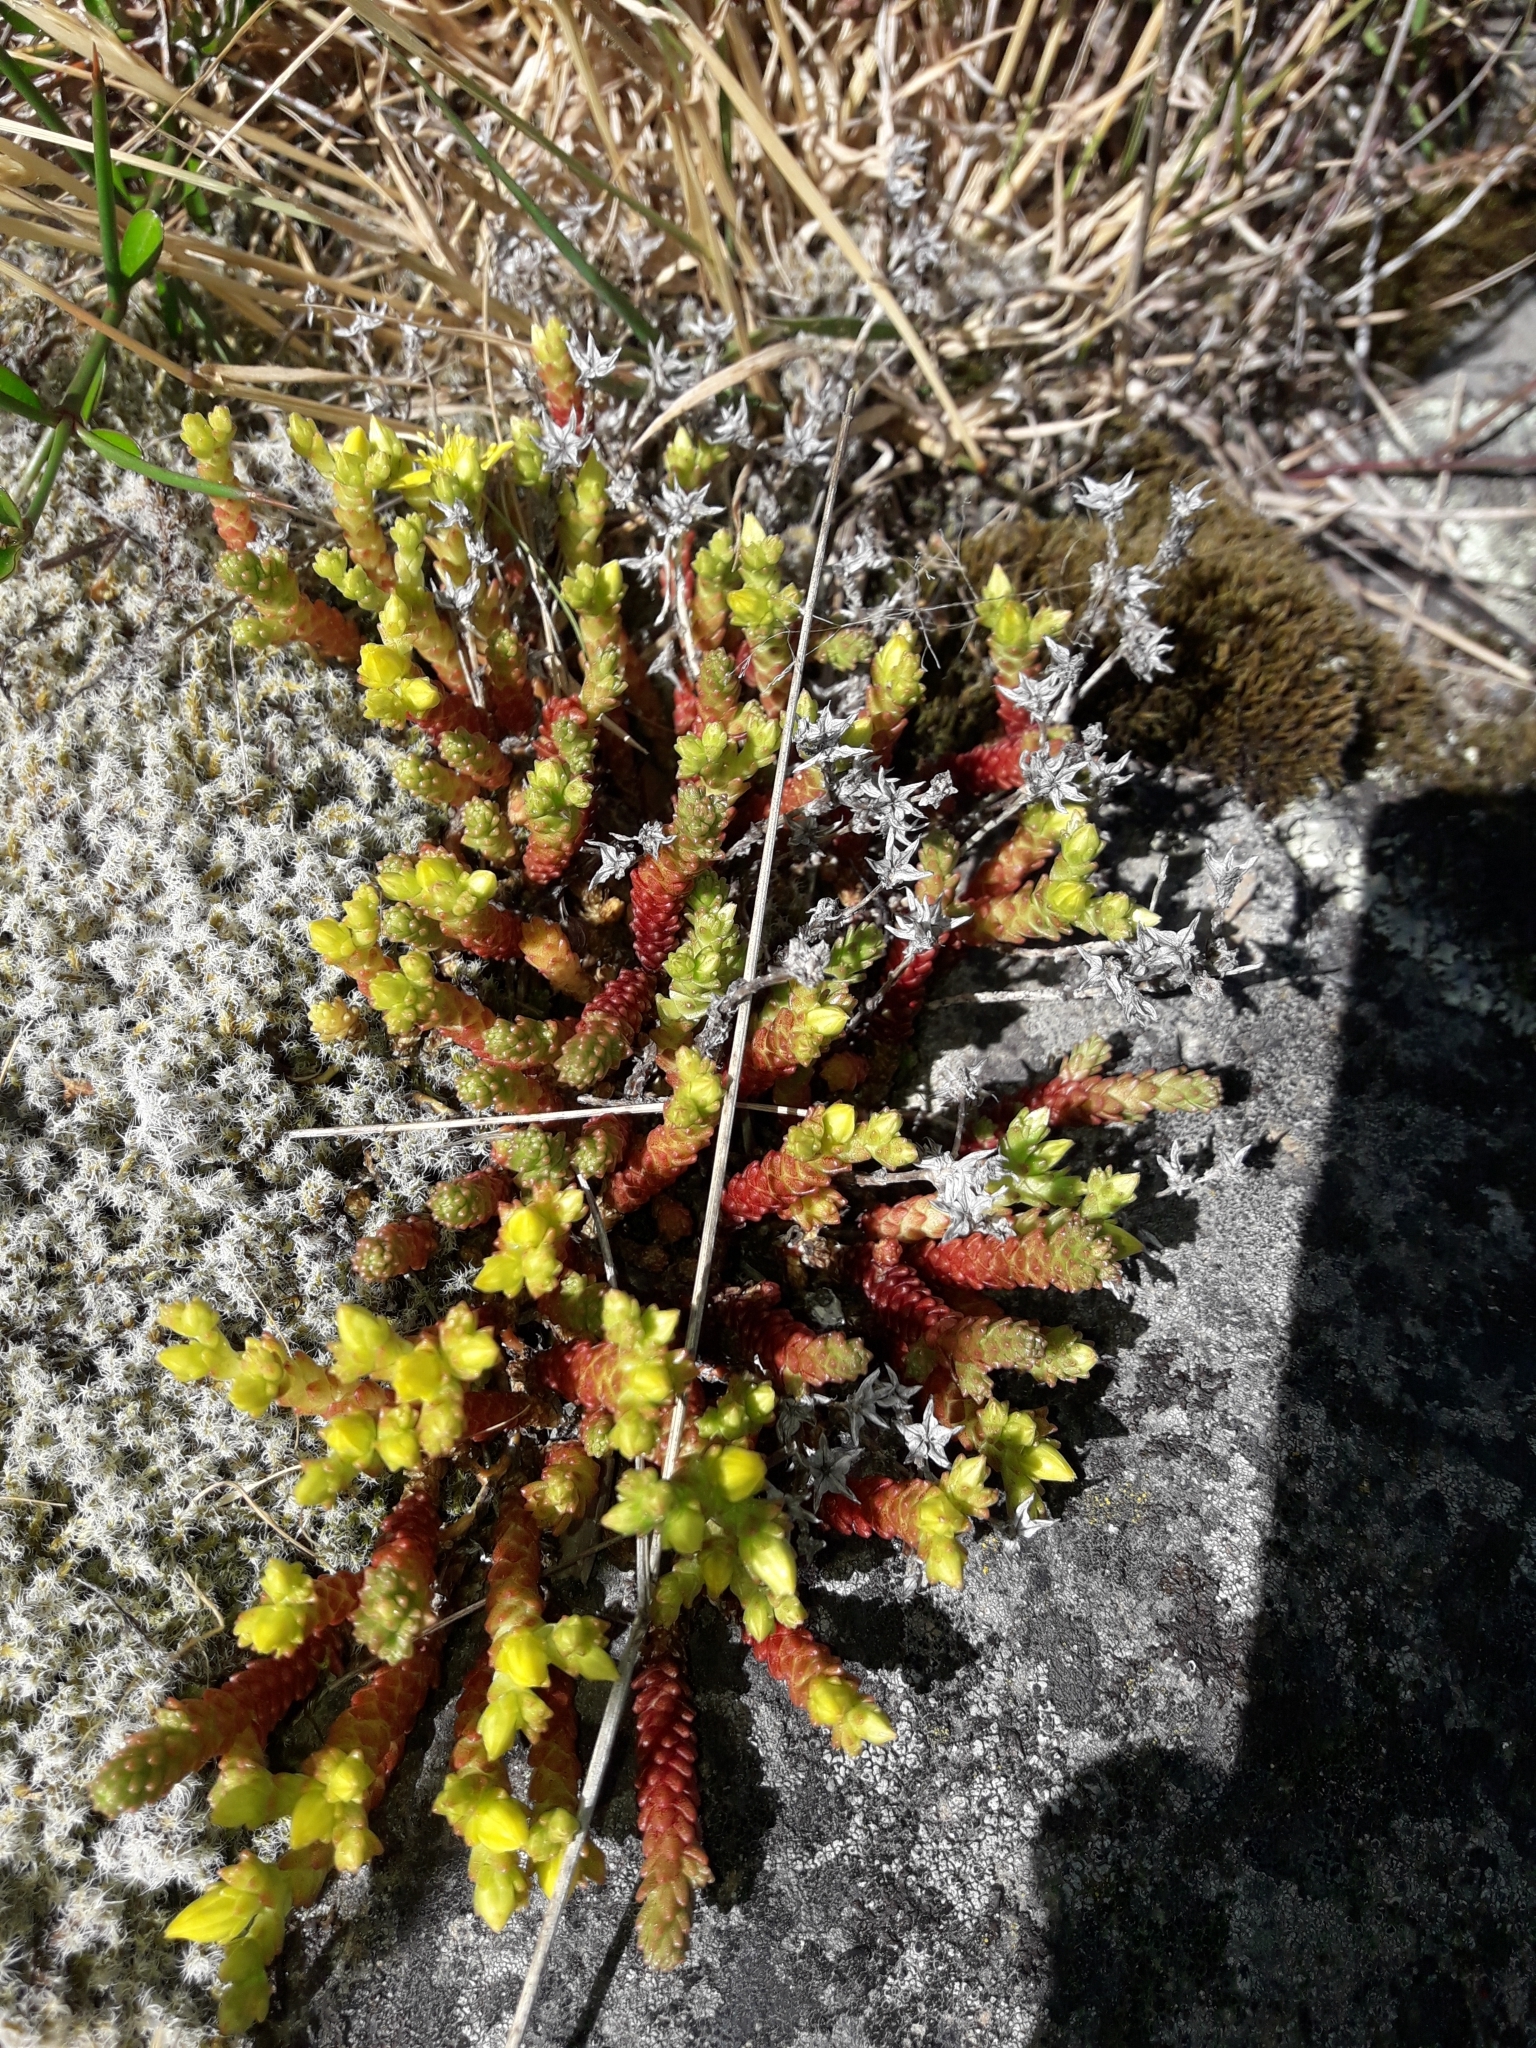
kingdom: Plantae
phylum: Tracheophyta
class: Magnoliopsida
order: Saxifragales
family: Crassulaceae
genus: Sedum
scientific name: Sedum acre
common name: Biting stonecrop
